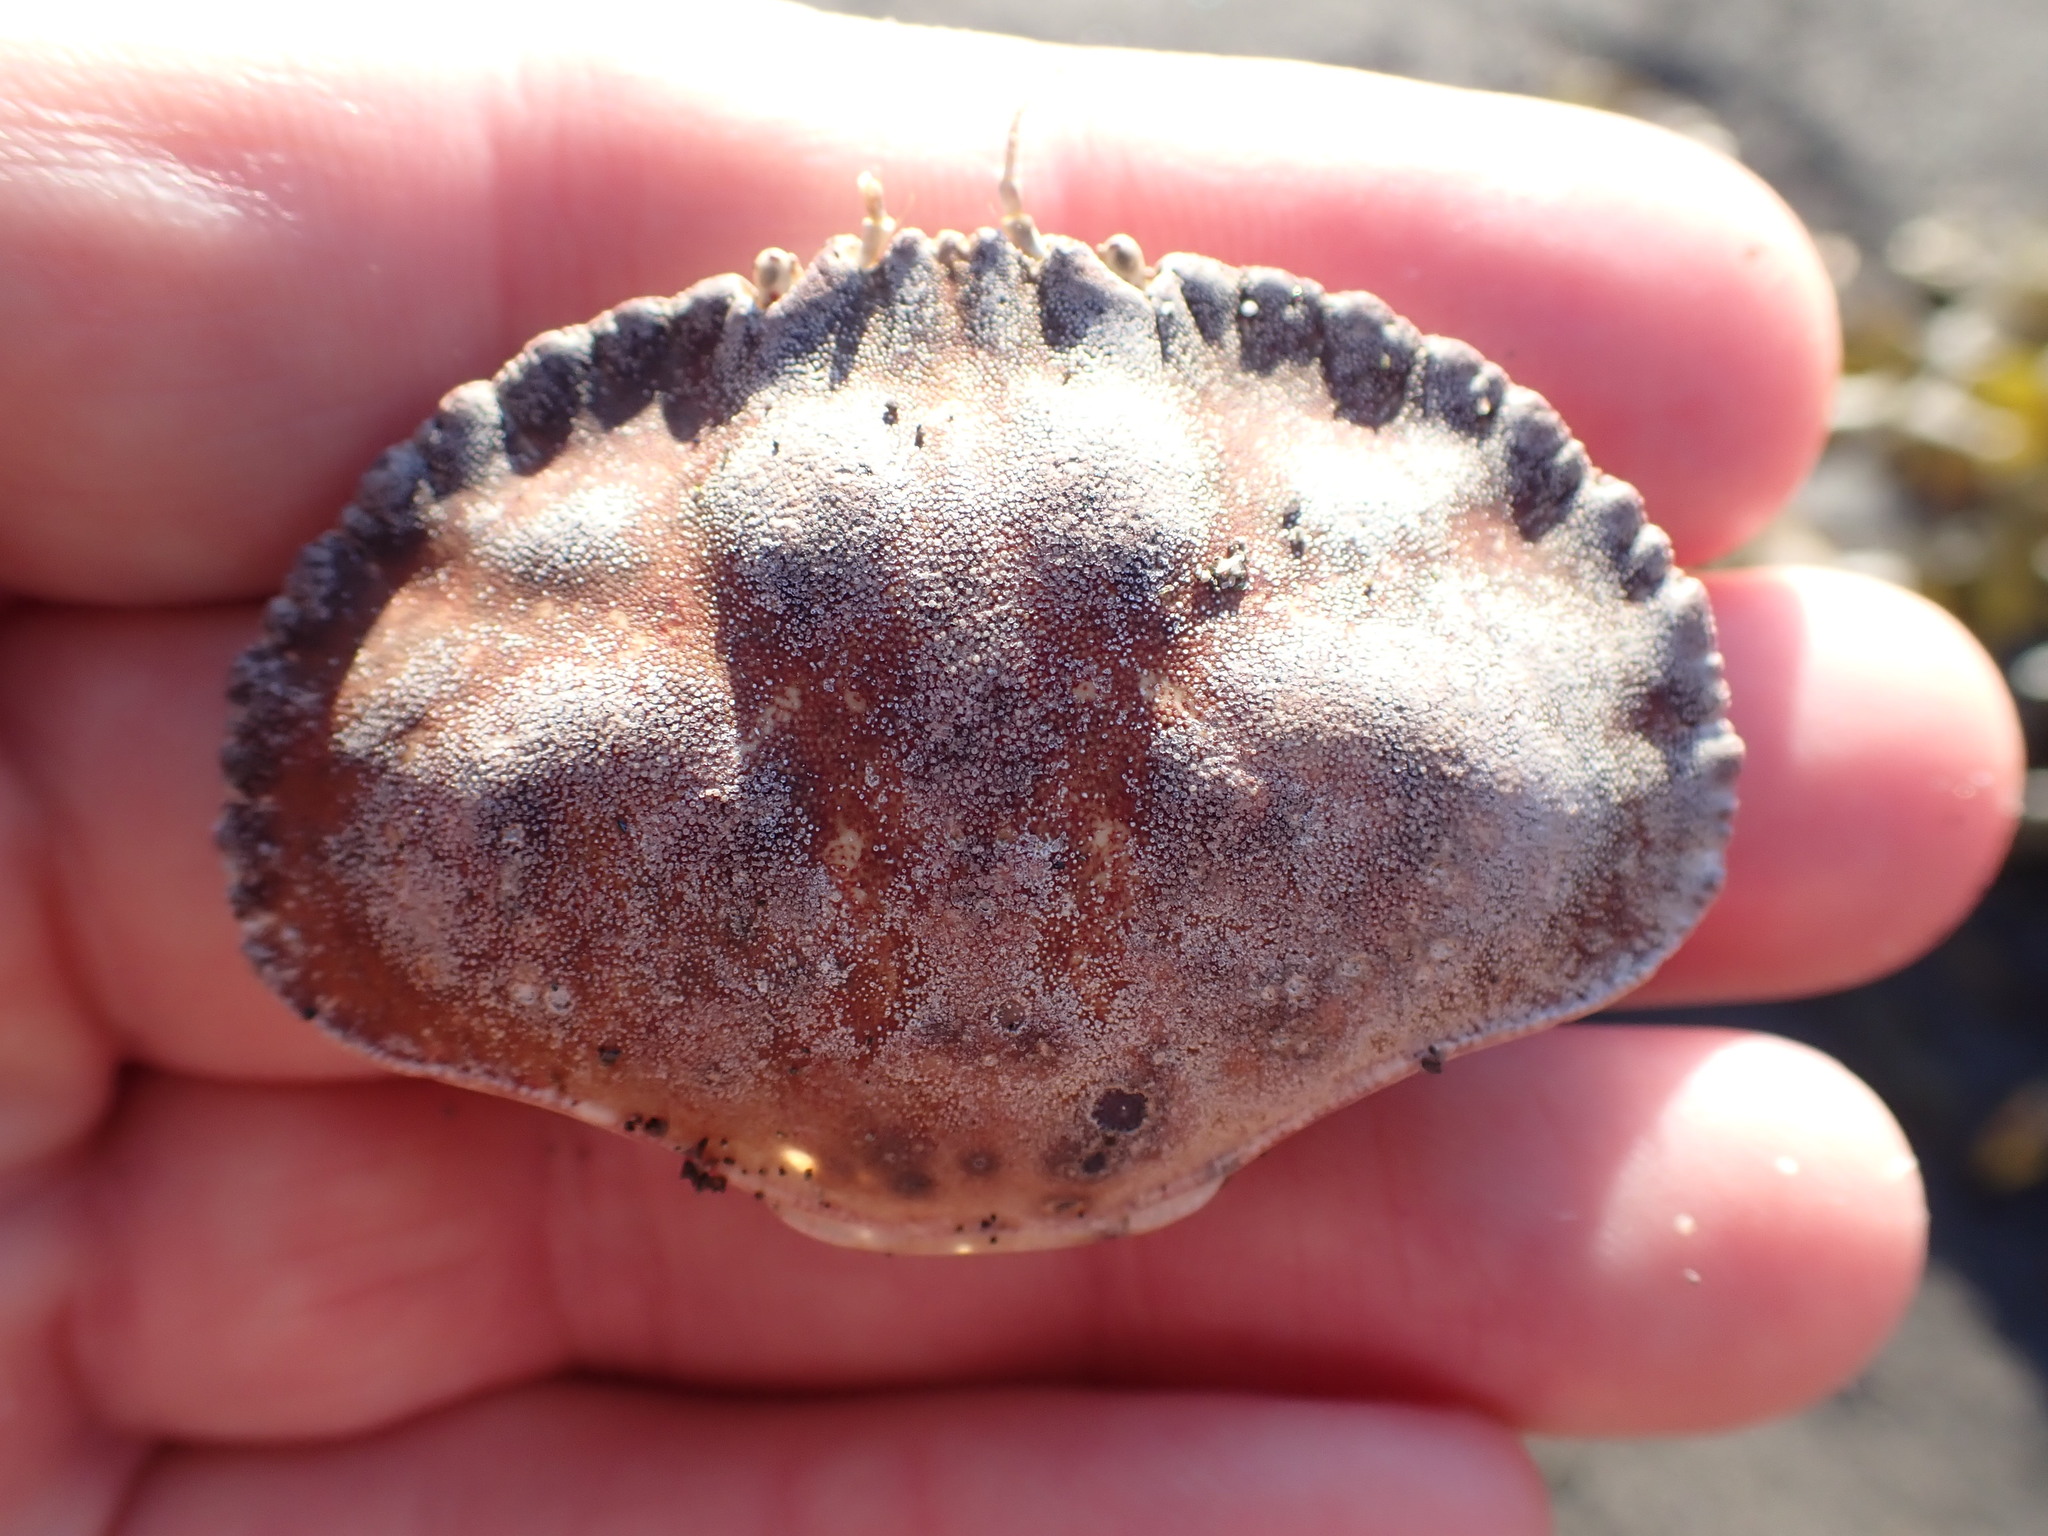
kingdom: Animalia
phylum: Arthropoda
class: Malacostraca
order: Decapoda
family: Cancridae
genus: Metacarcinus
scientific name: Metacarcinus novaezelandiae
